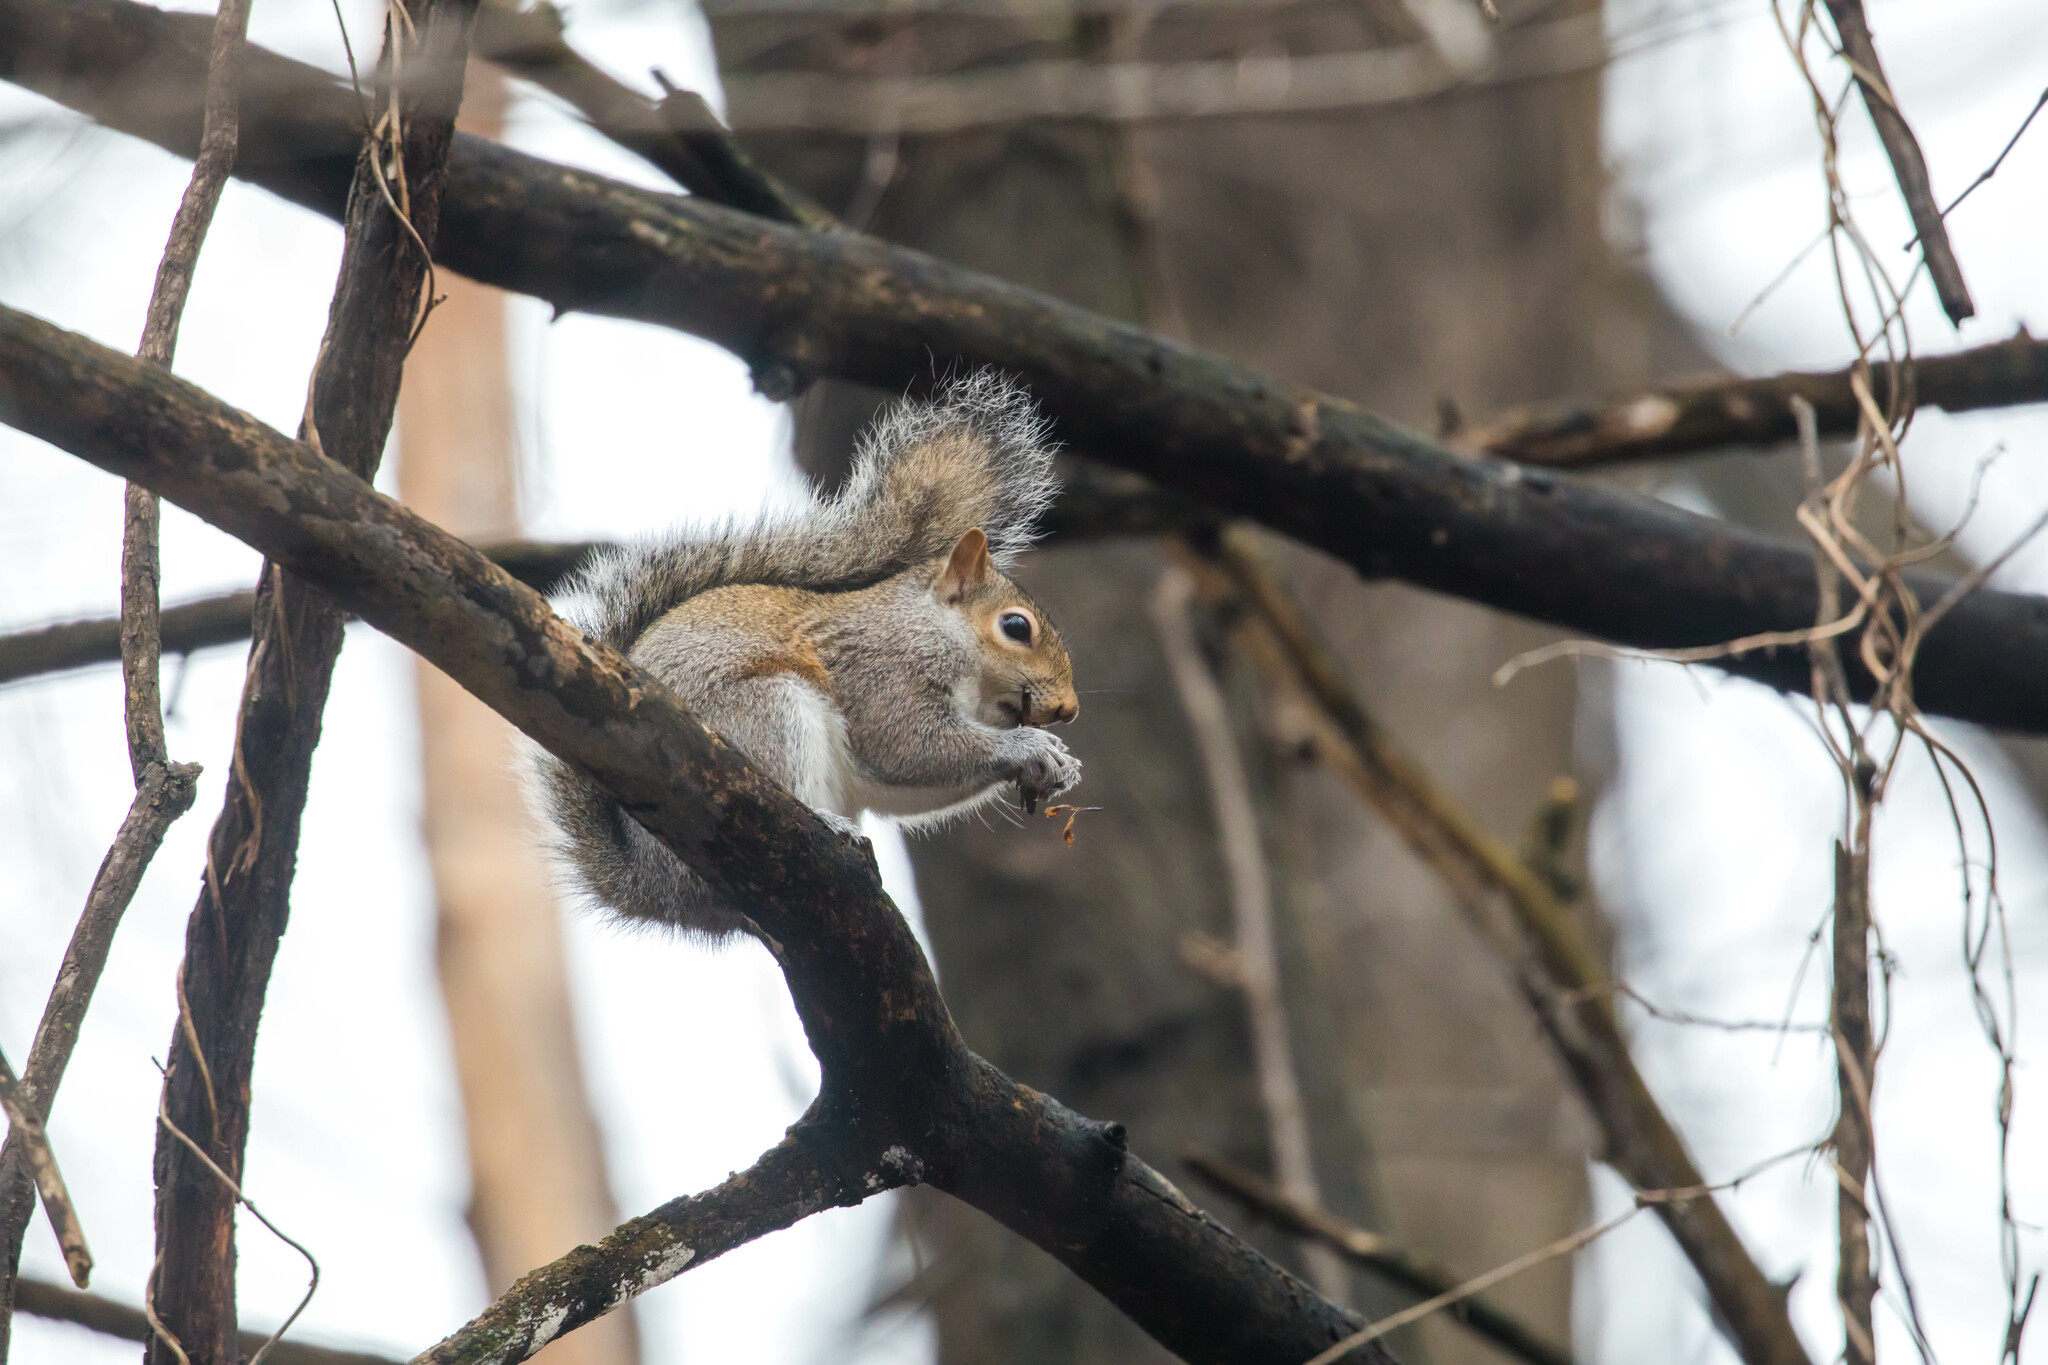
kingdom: Animalia
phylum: Chordata
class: Mammalia
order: Rodentia
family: Sciuridae
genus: Sciurus
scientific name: Sciurus carolinensis
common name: Eastern gray squirrel
